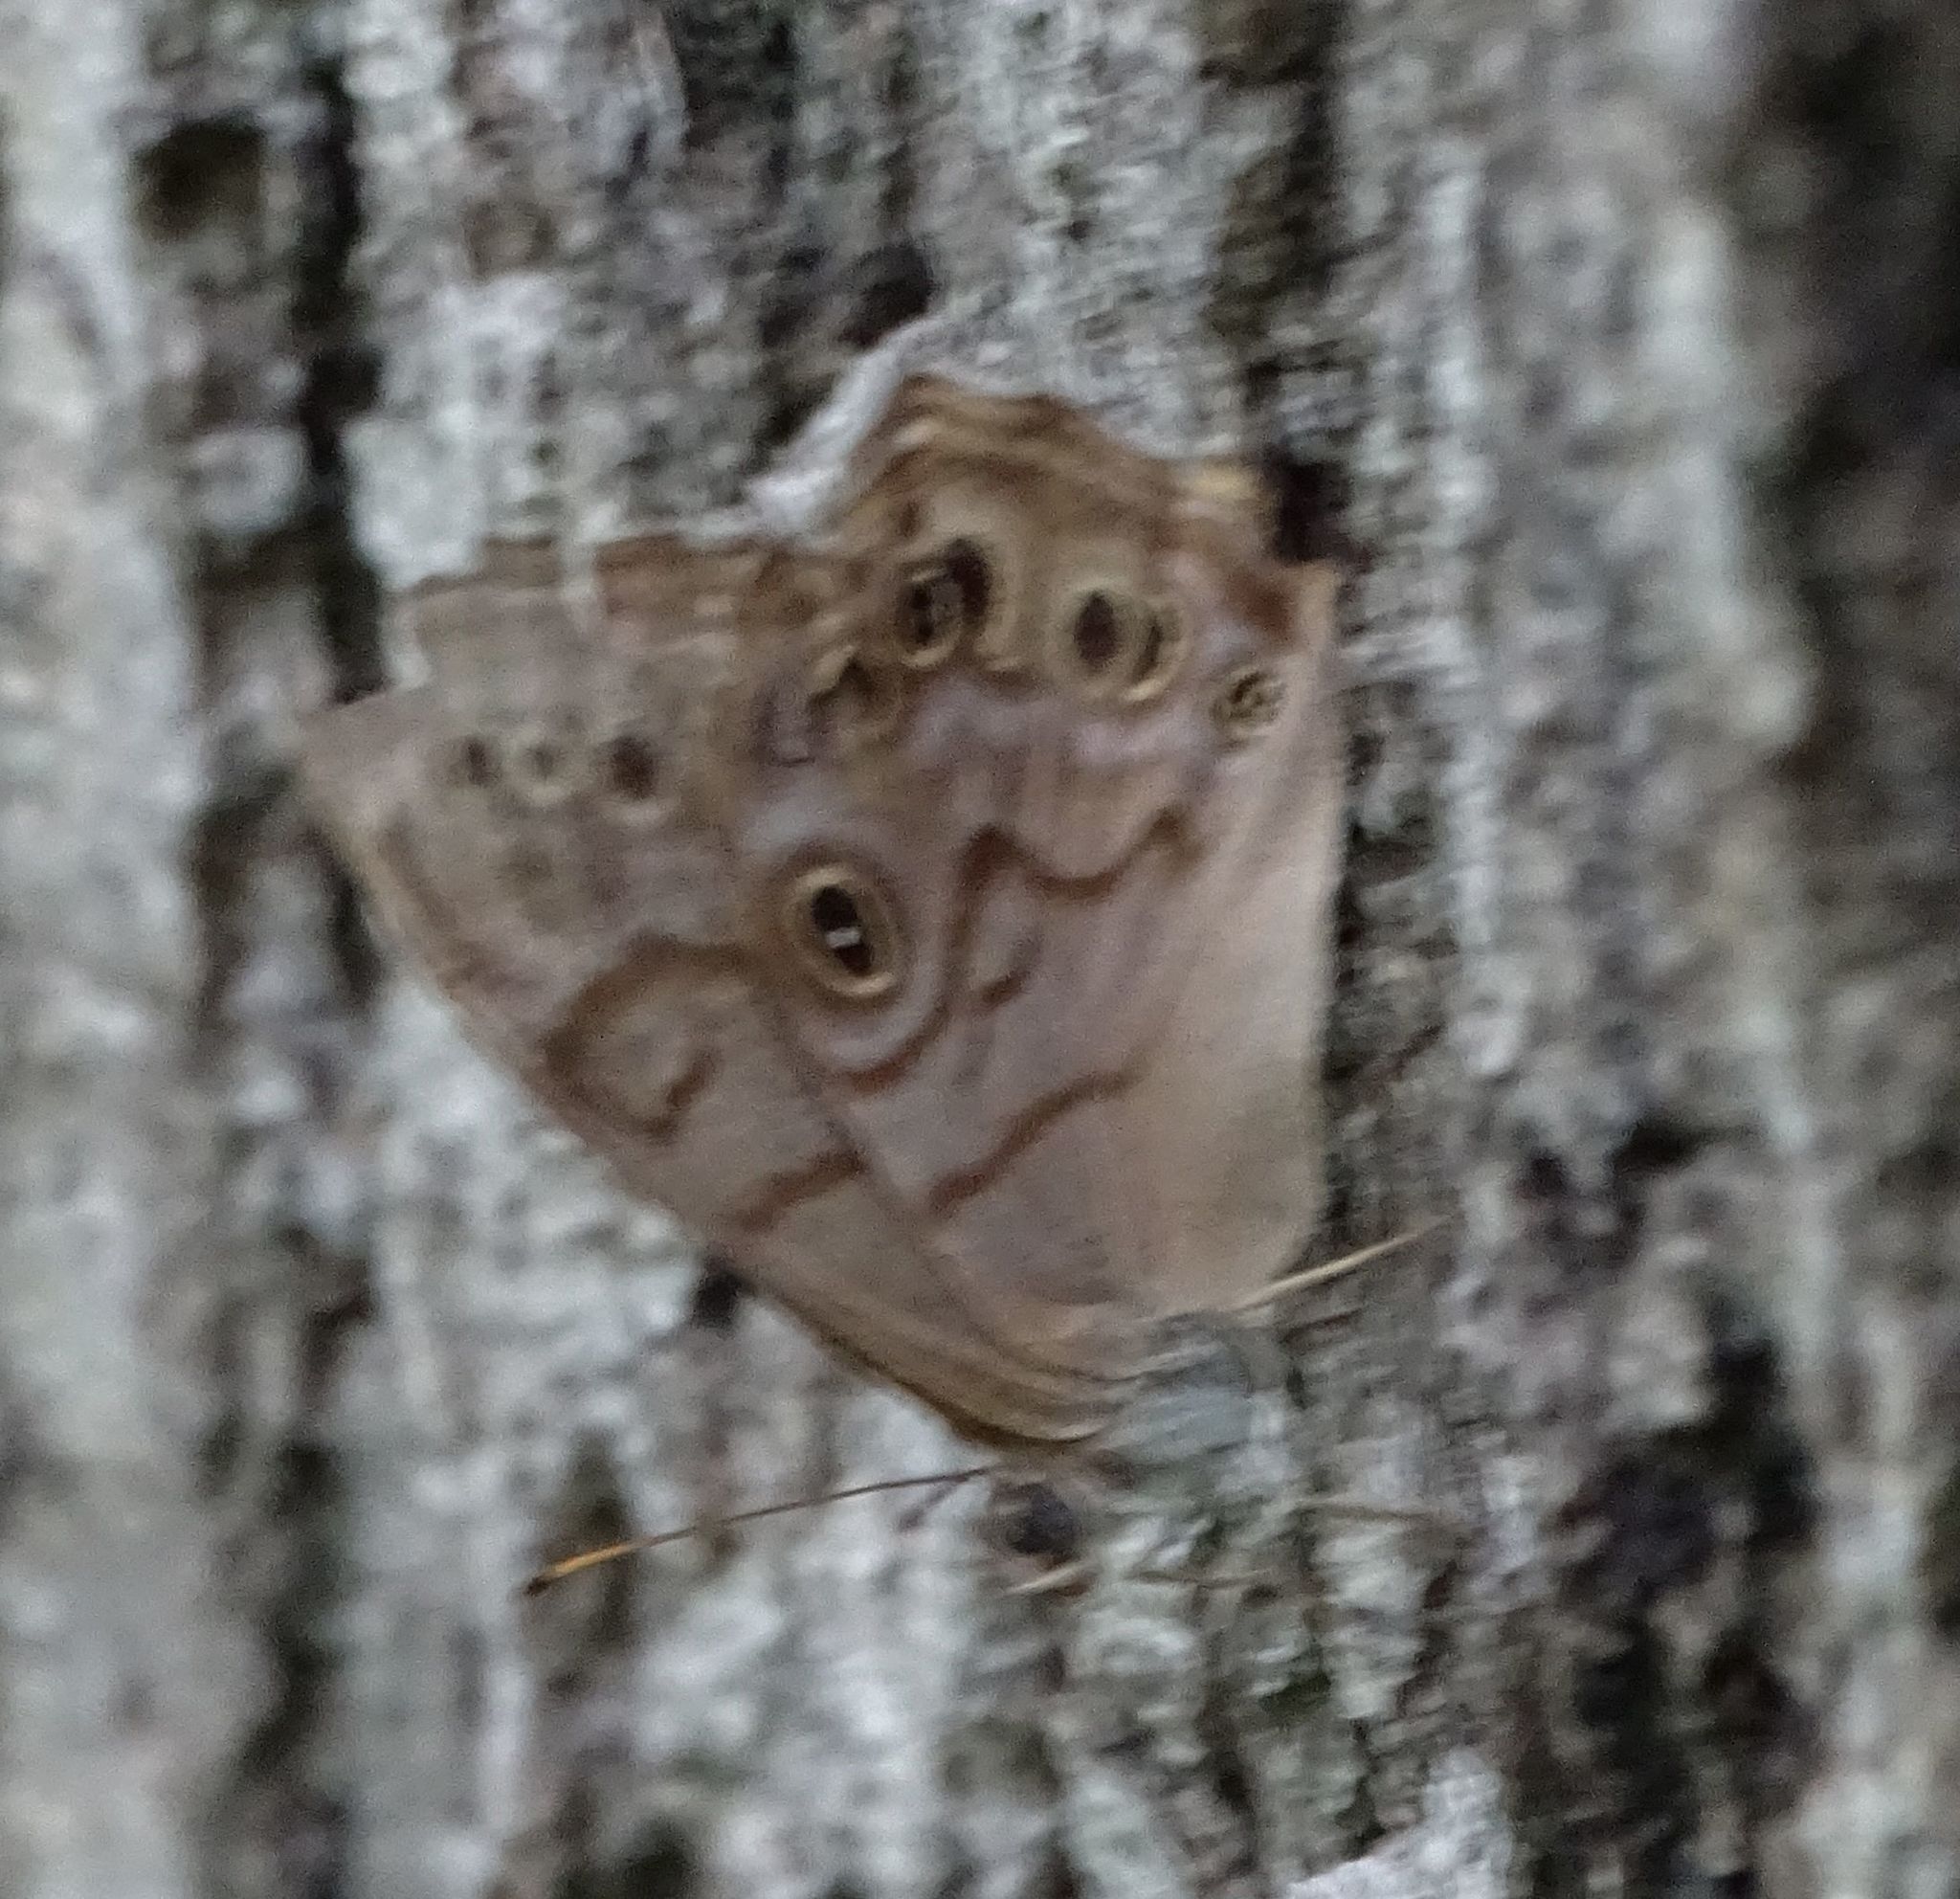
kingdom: Animalia
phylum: Arthropoda
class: Insecta
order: Lepidoptera
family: Nymphalidae
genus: Lethe
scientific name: Lethe anthedon
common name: Northern pearly-eye
